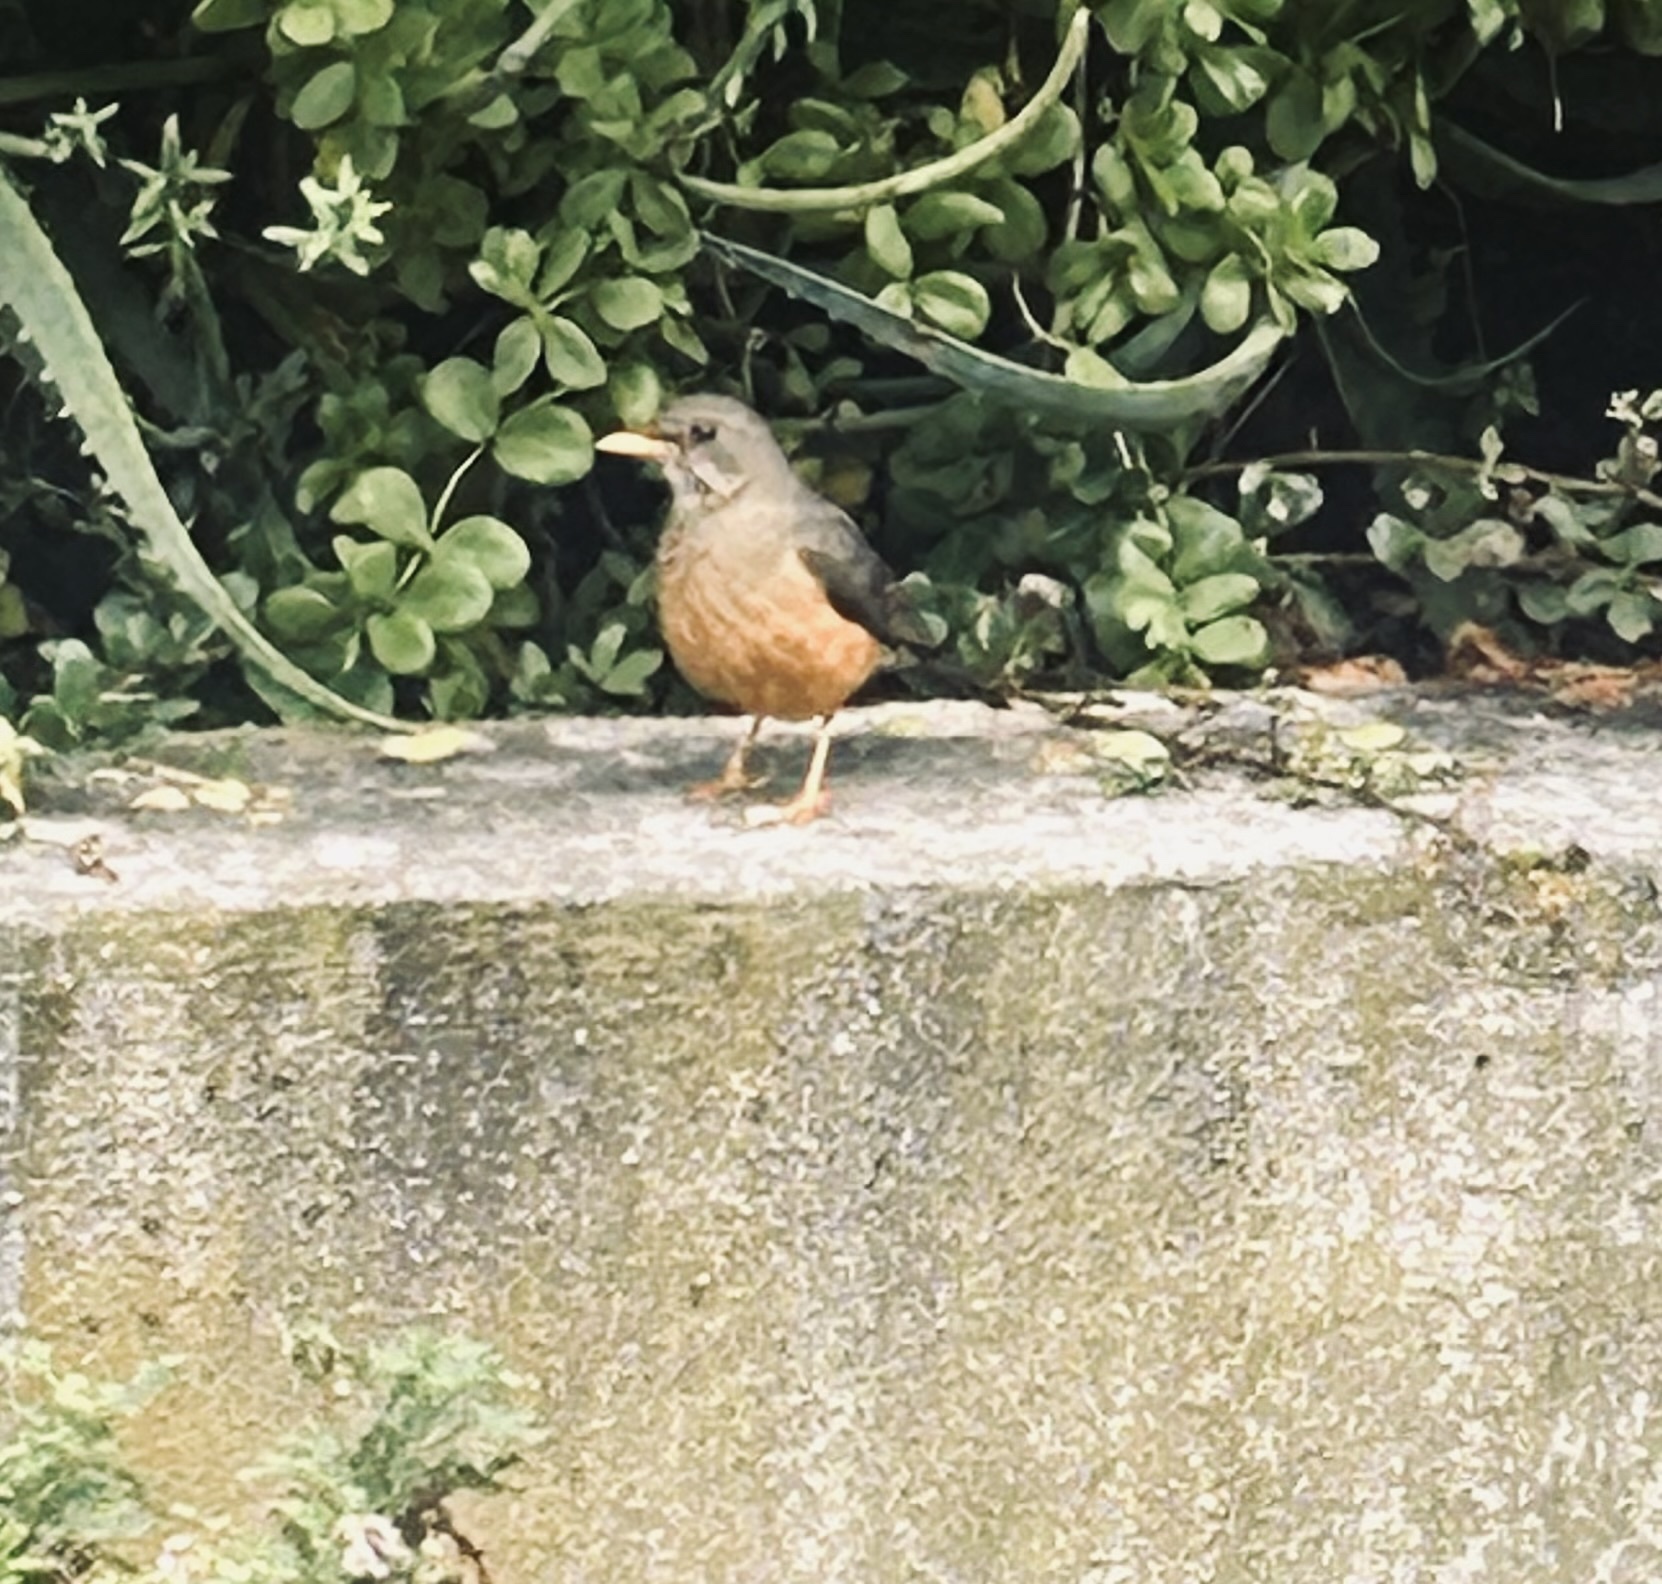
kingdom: Animalia
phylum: Chordata
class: Aves
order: Passeriformes
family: Turdidae
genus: Turdus
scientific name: Turdus olivaceus
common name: Olive thrush
